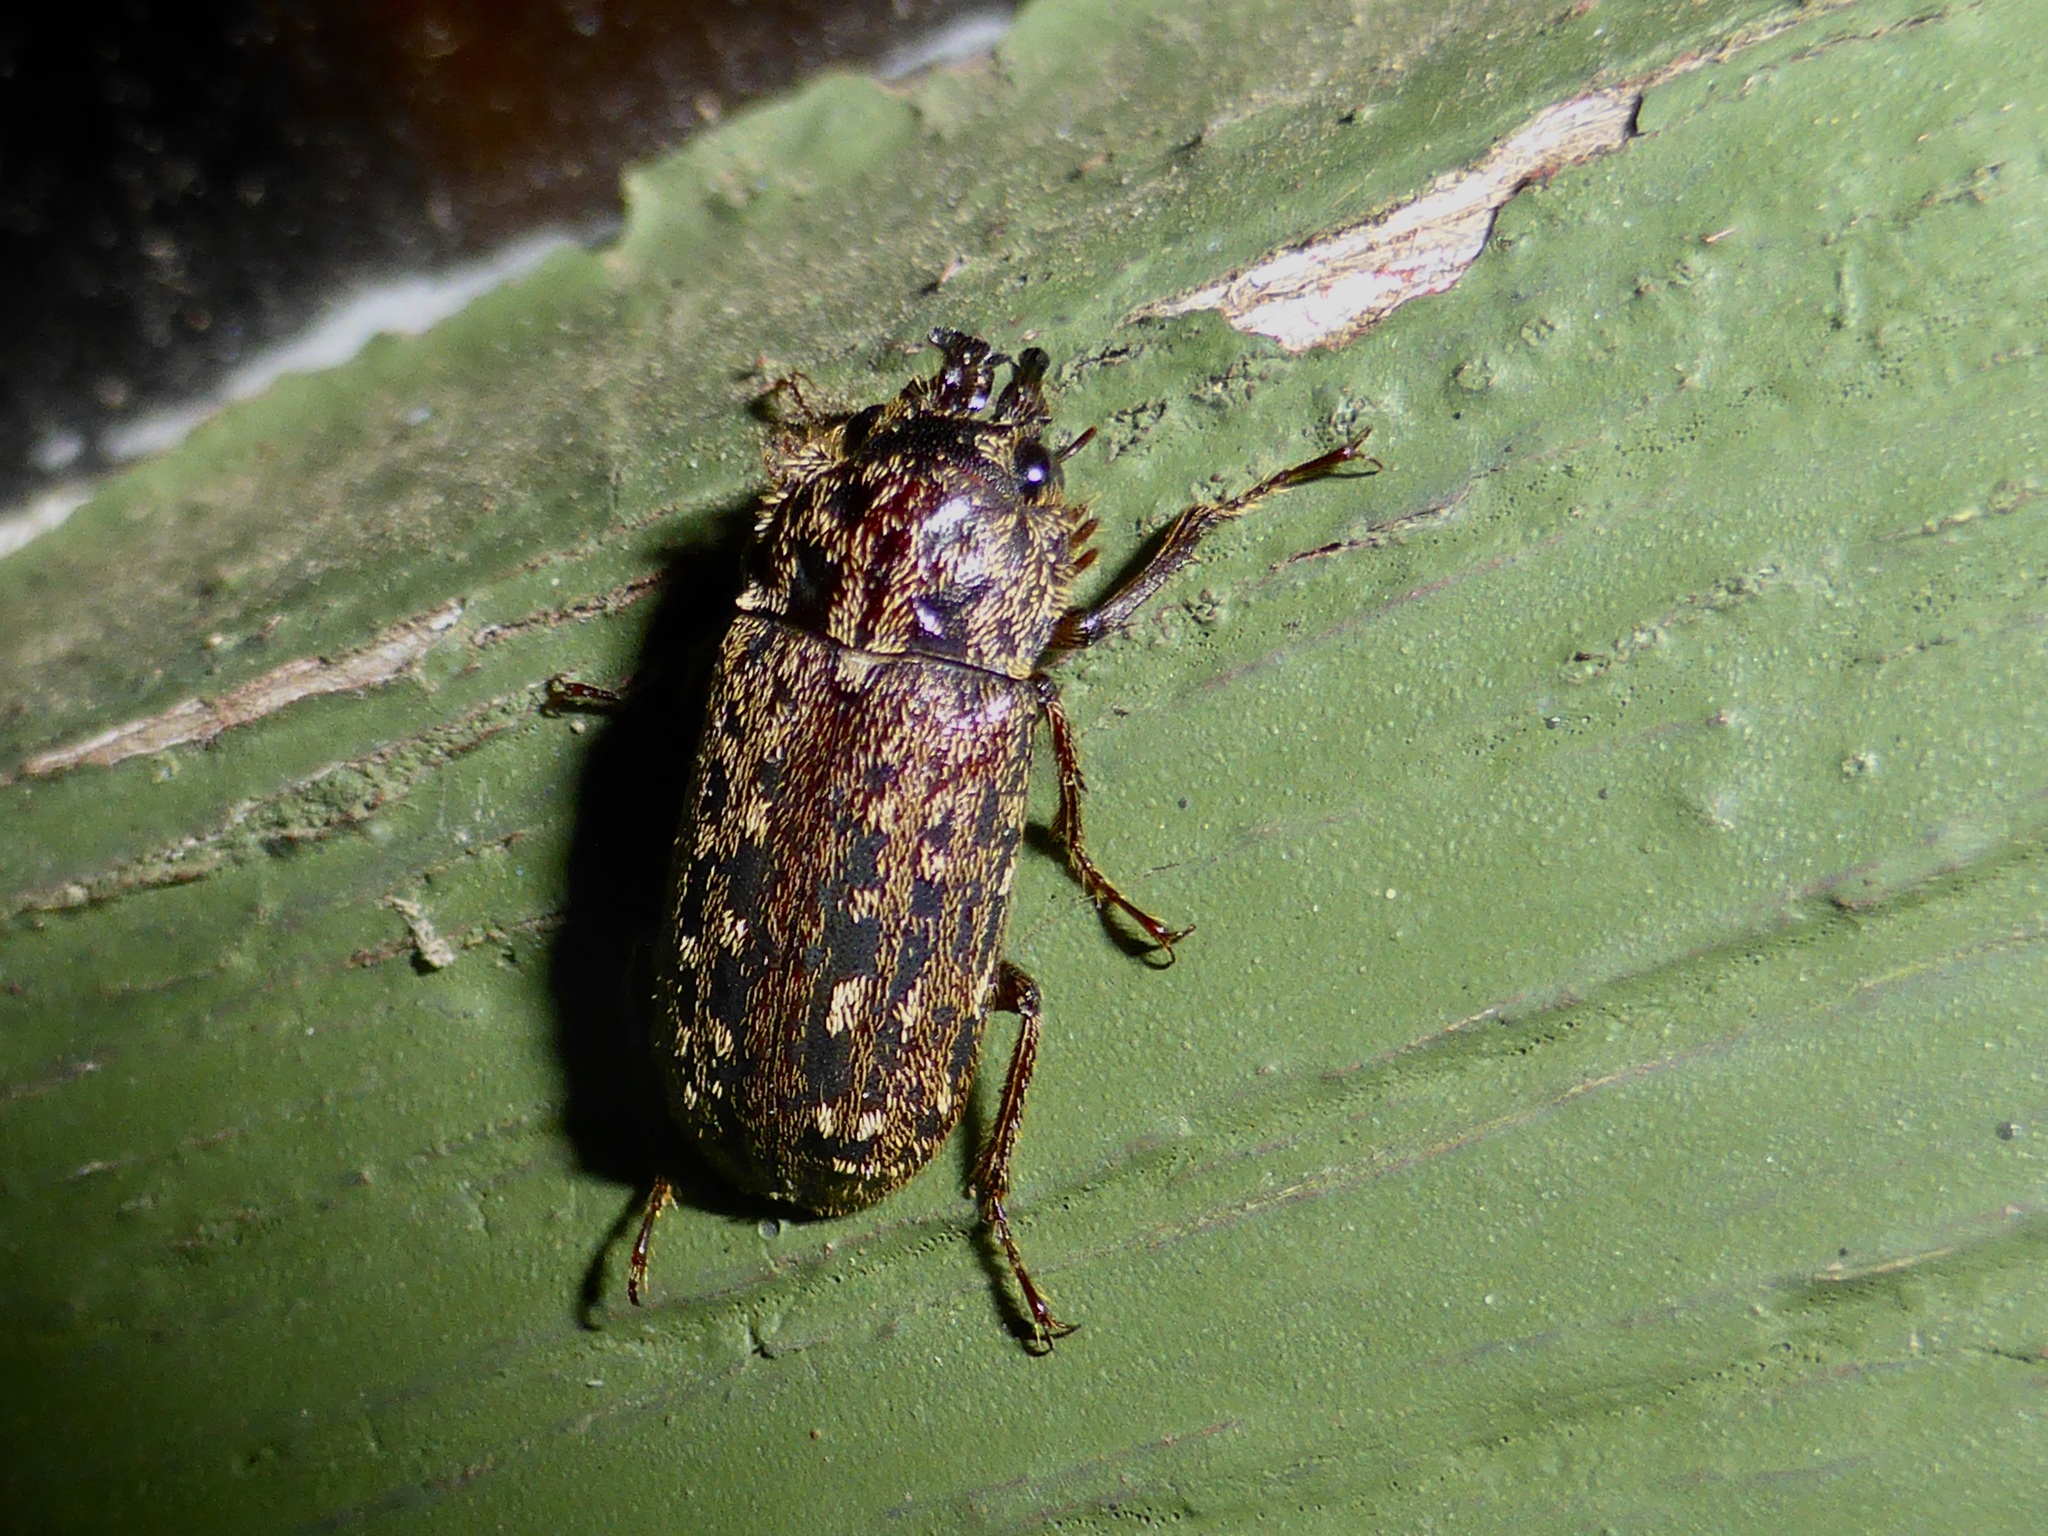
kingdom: Animalia
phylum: Arthropoda
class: Insecta
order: Coleoptera
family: Lucanidae
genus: Mitophyllus
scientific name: Mitophyllus irroratus
